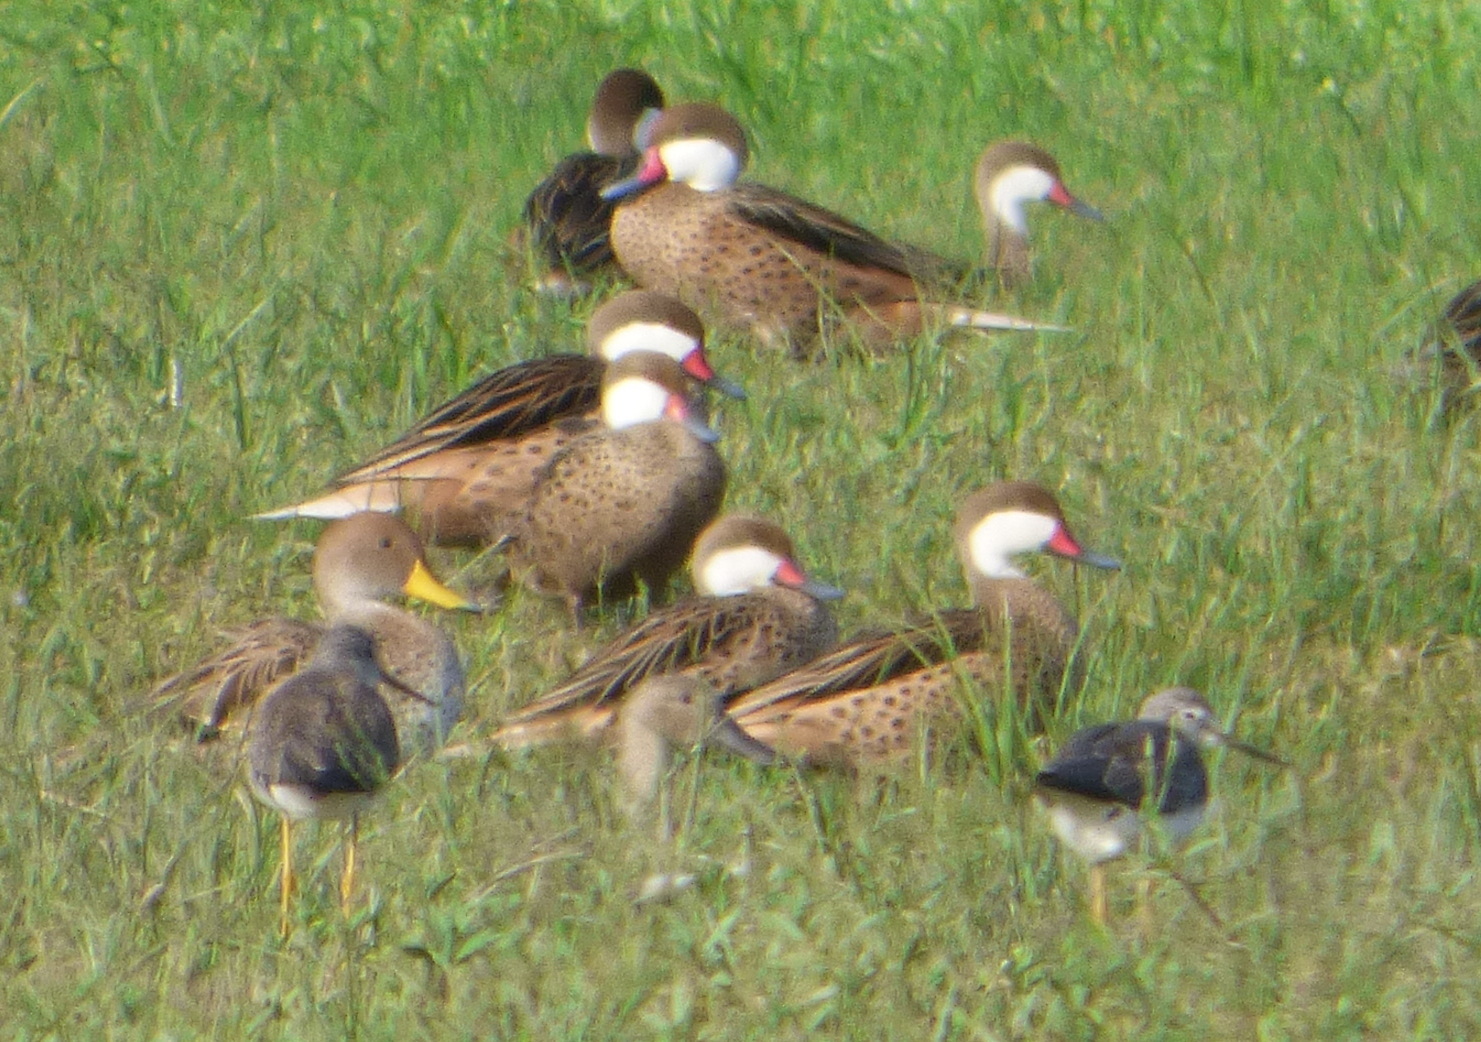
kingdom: Animalia
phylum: Chordata
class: Aves
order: Anseriformes
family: Anatidae
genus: Anas
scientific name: Anas georgica
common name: Yellow-billed pintail
